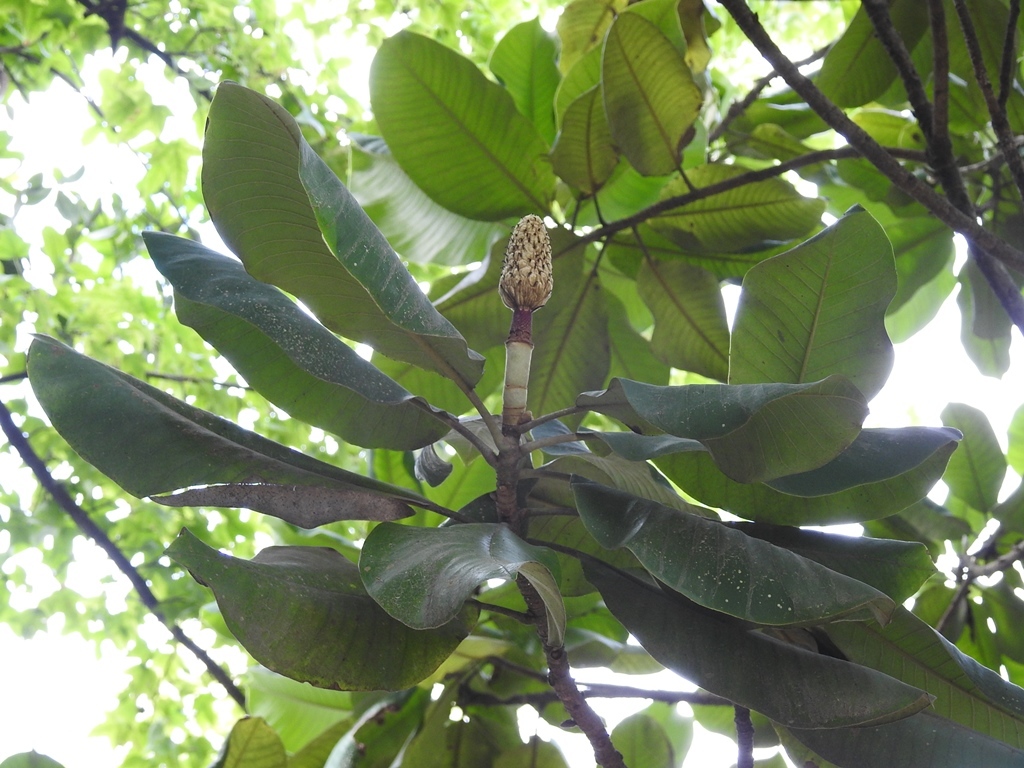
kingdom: Plantae
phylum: Tracheophyta
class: Magnoliopsida
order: Magnoliales
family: Magnoliaceae
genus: Magnolia
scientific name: Magnolia sharpii
